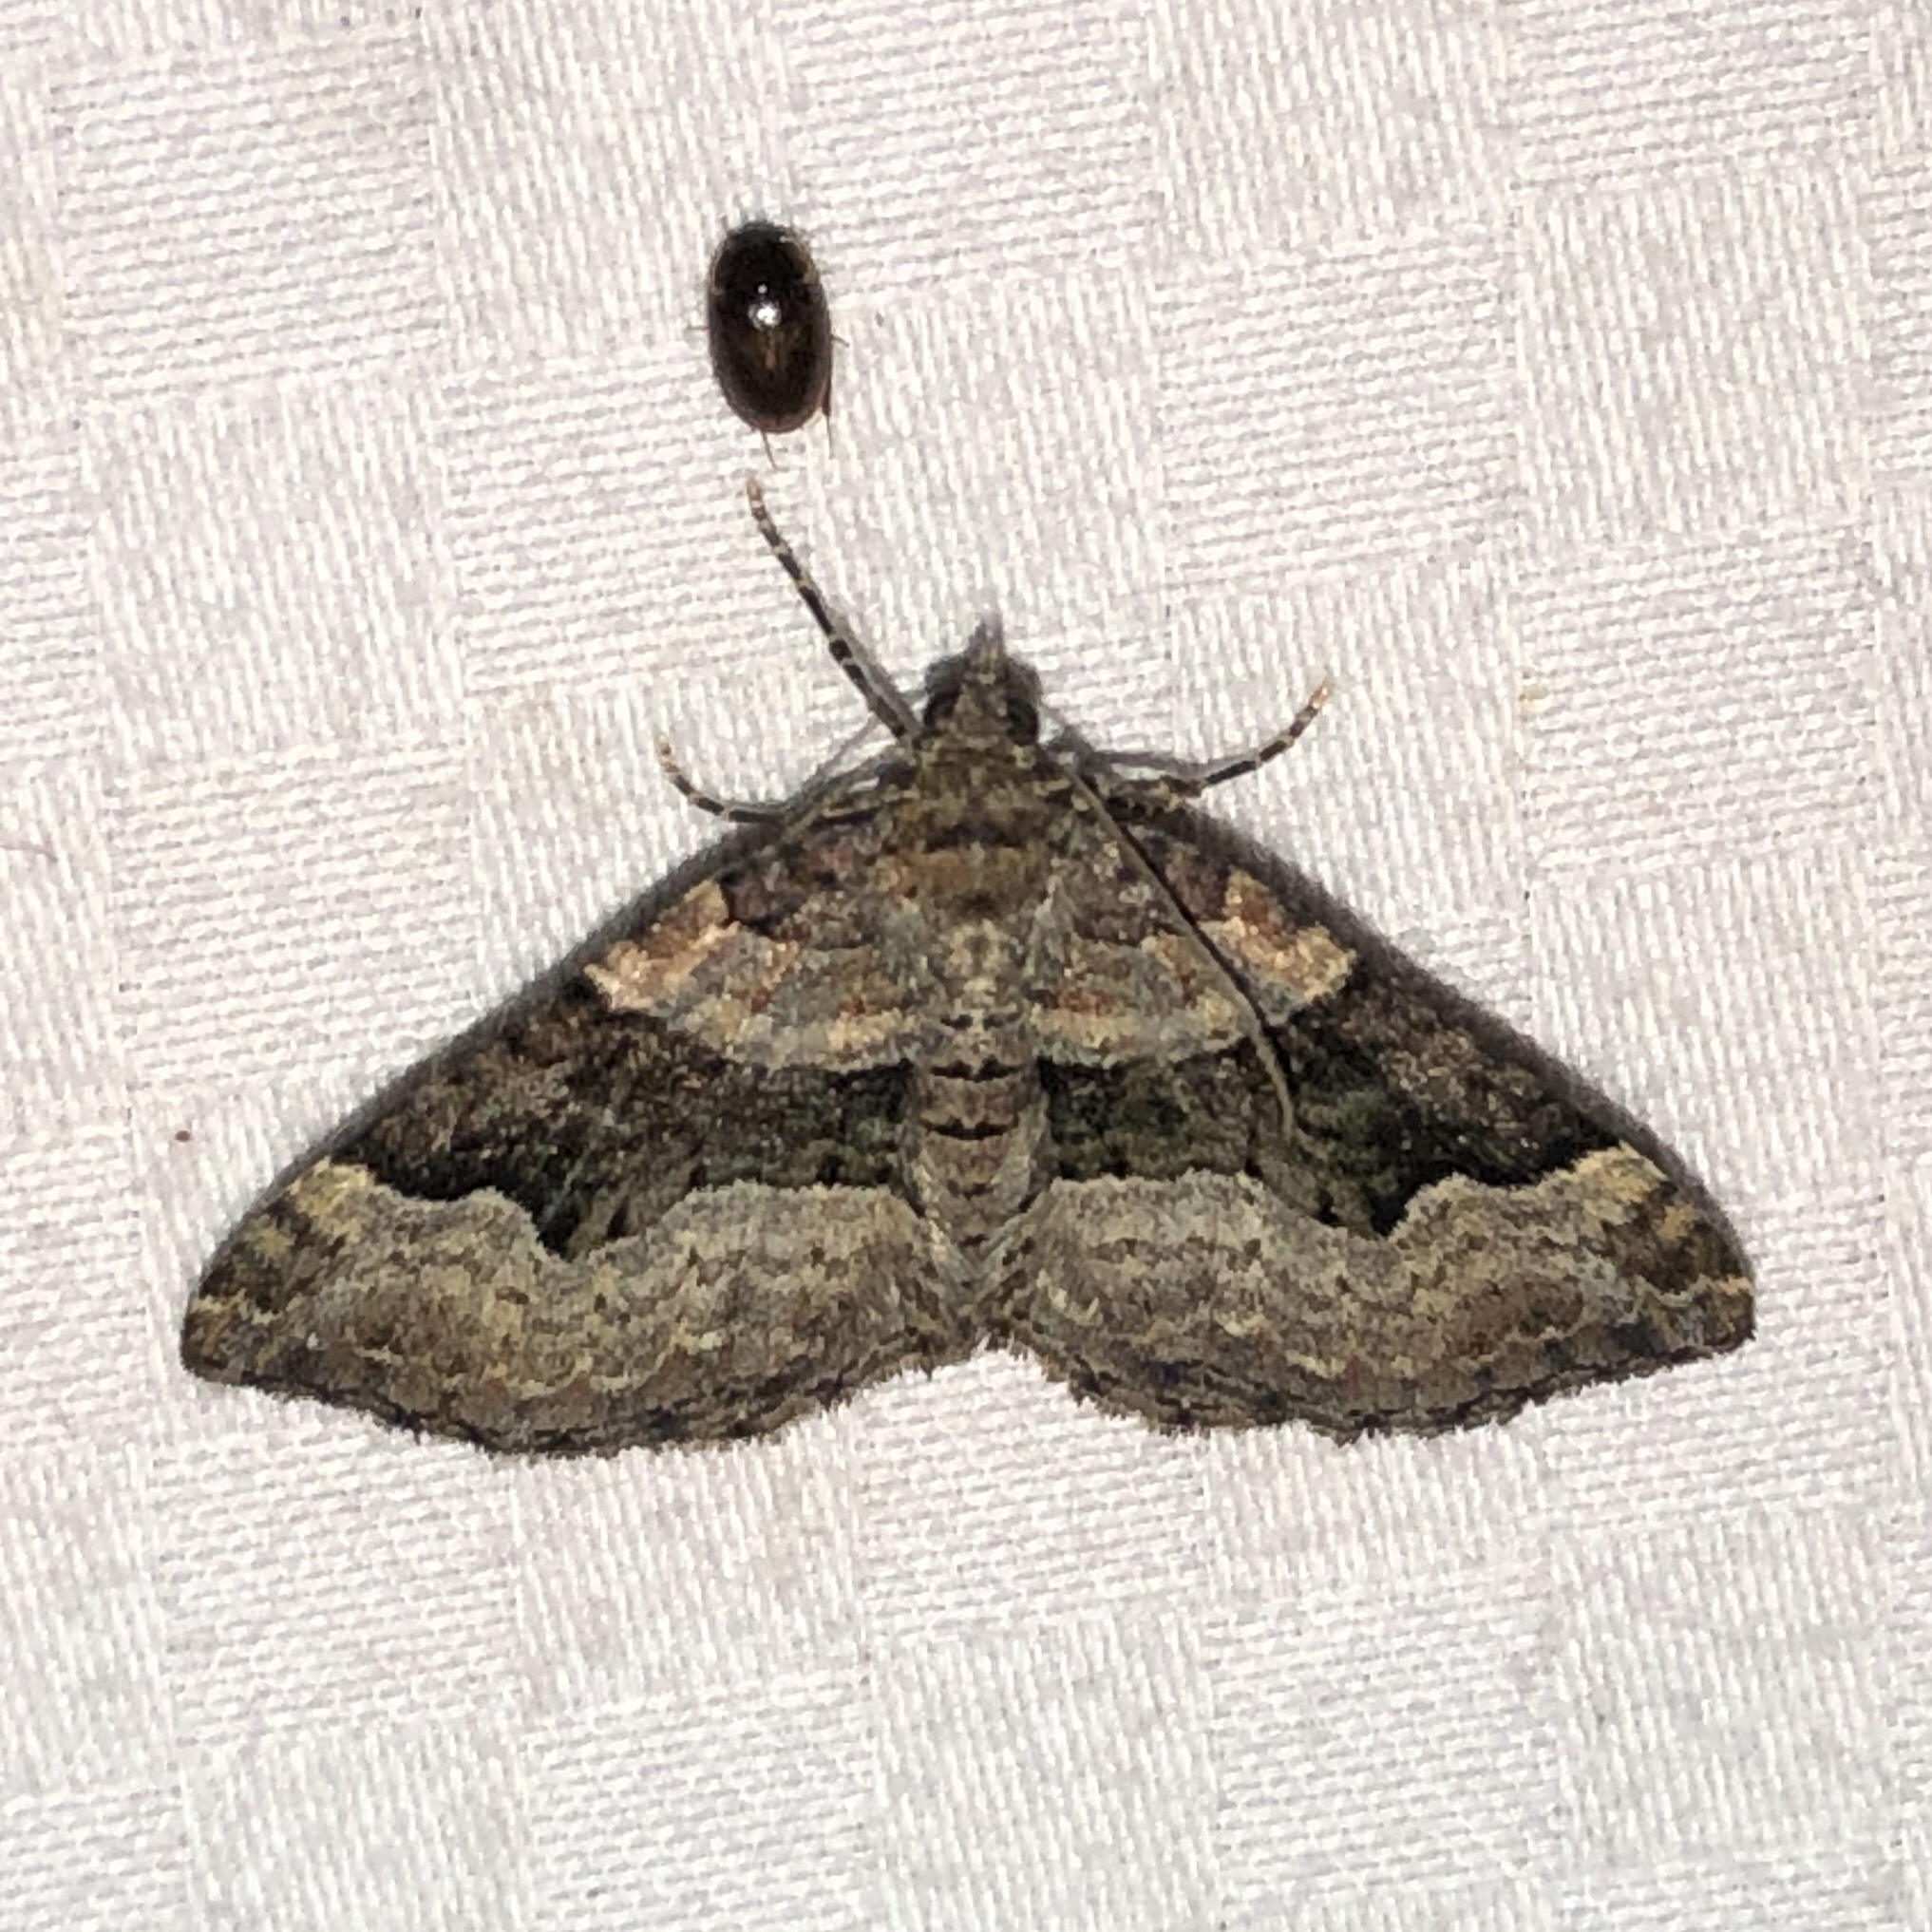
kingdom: Animalia
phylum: Arthropoda
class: Insecta
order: Lepidoptera
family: Geometridae
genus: Xanthorhoe
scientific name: Xanthorhoe lacustrata
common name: Toothed brown carpet
